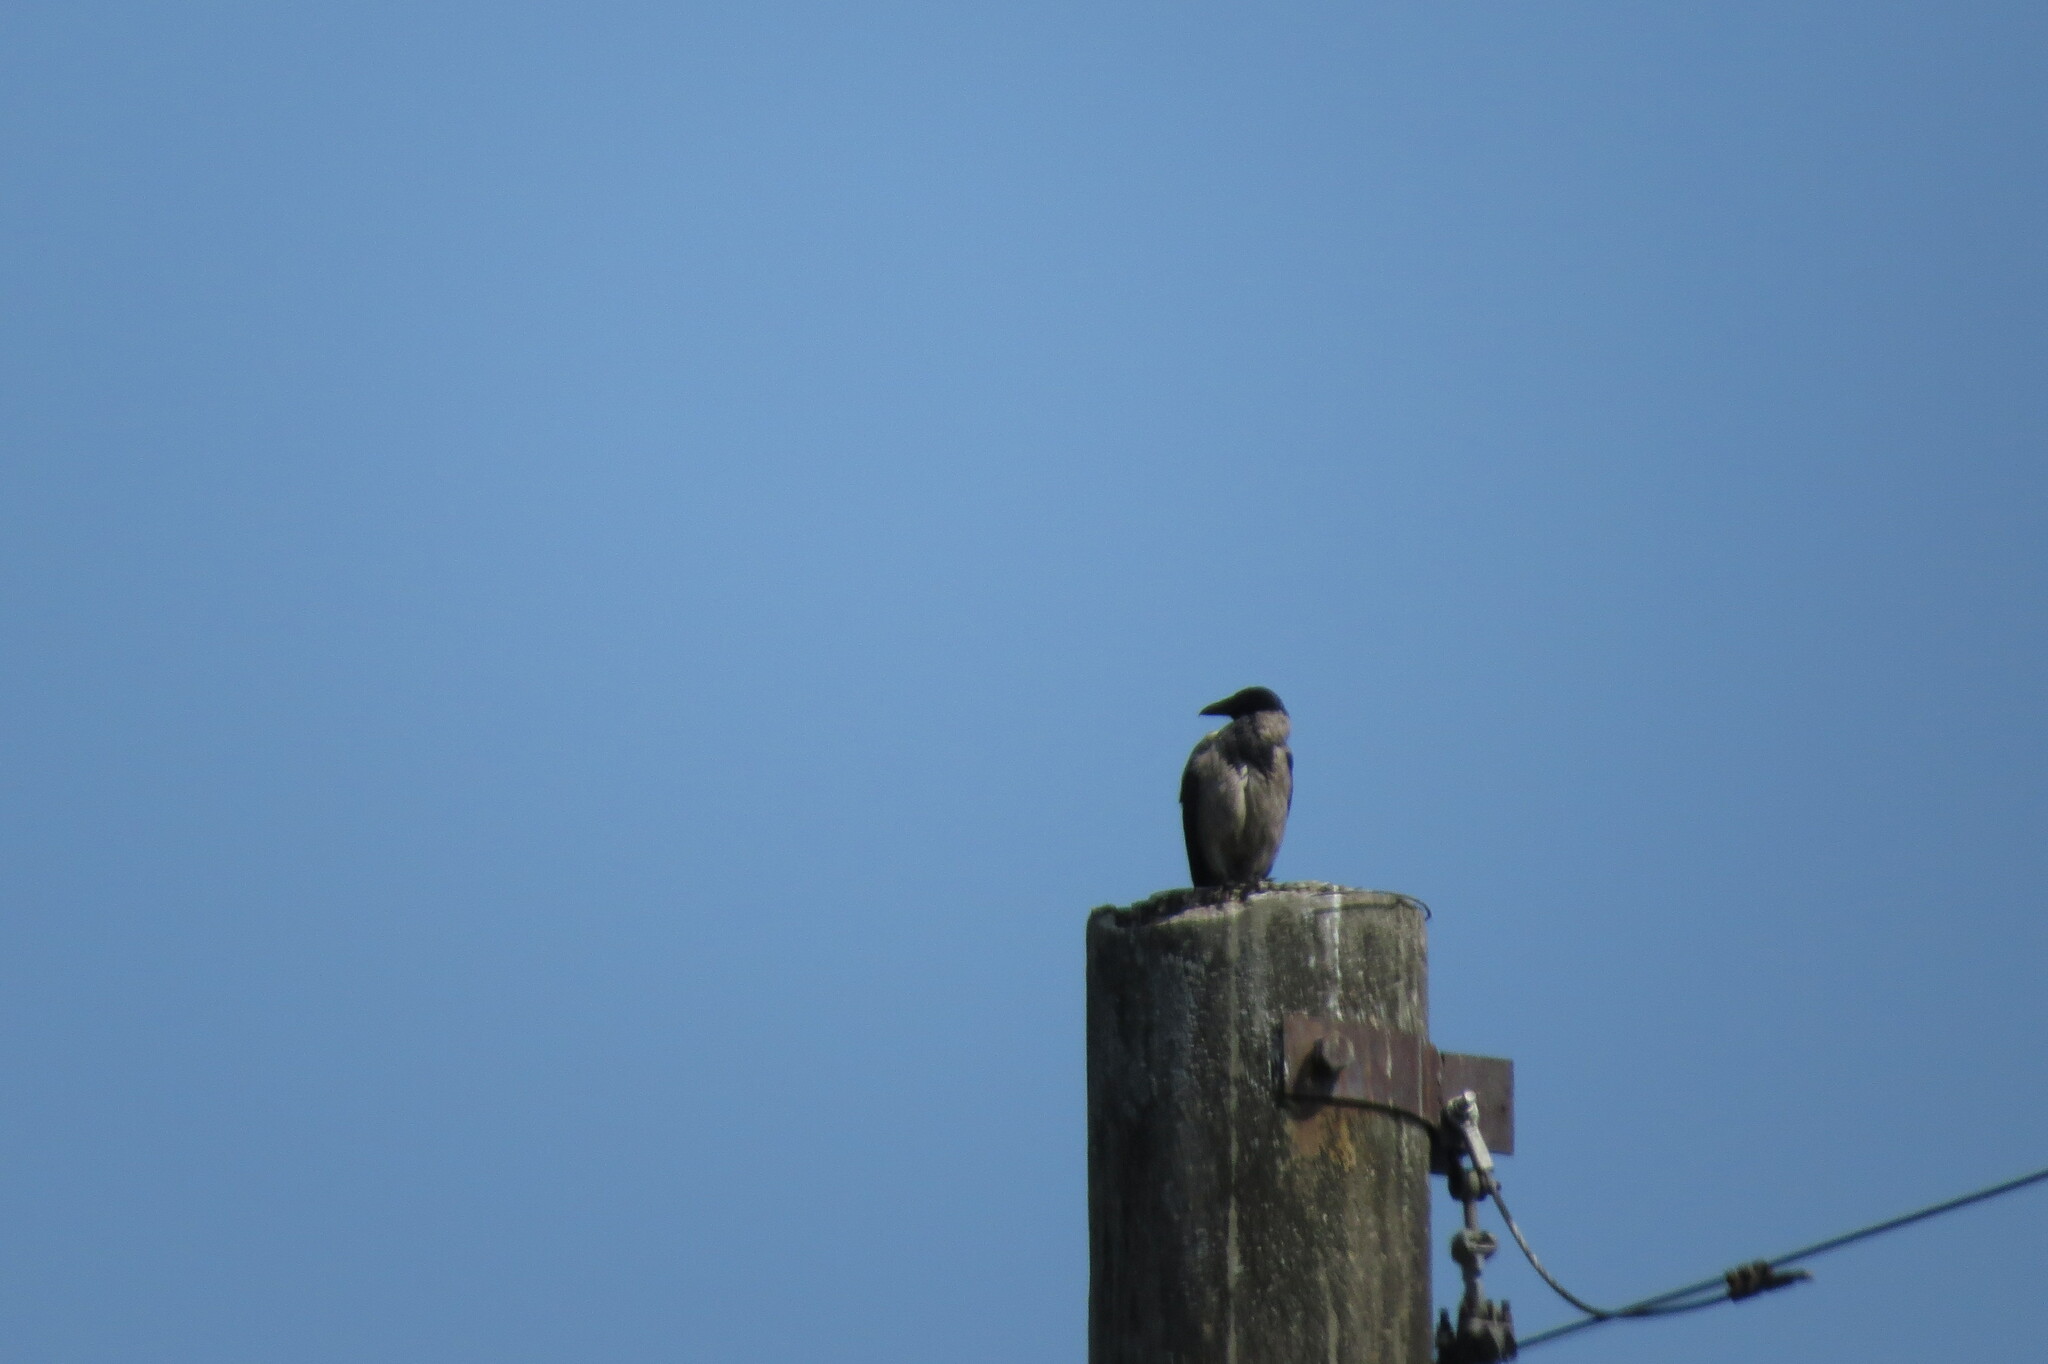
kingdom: Animalia
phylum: Chordata
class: Aves
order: Passeriformes
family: Corvidae
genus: Corvus
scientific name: Corvus cornix
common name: Hooded crow
